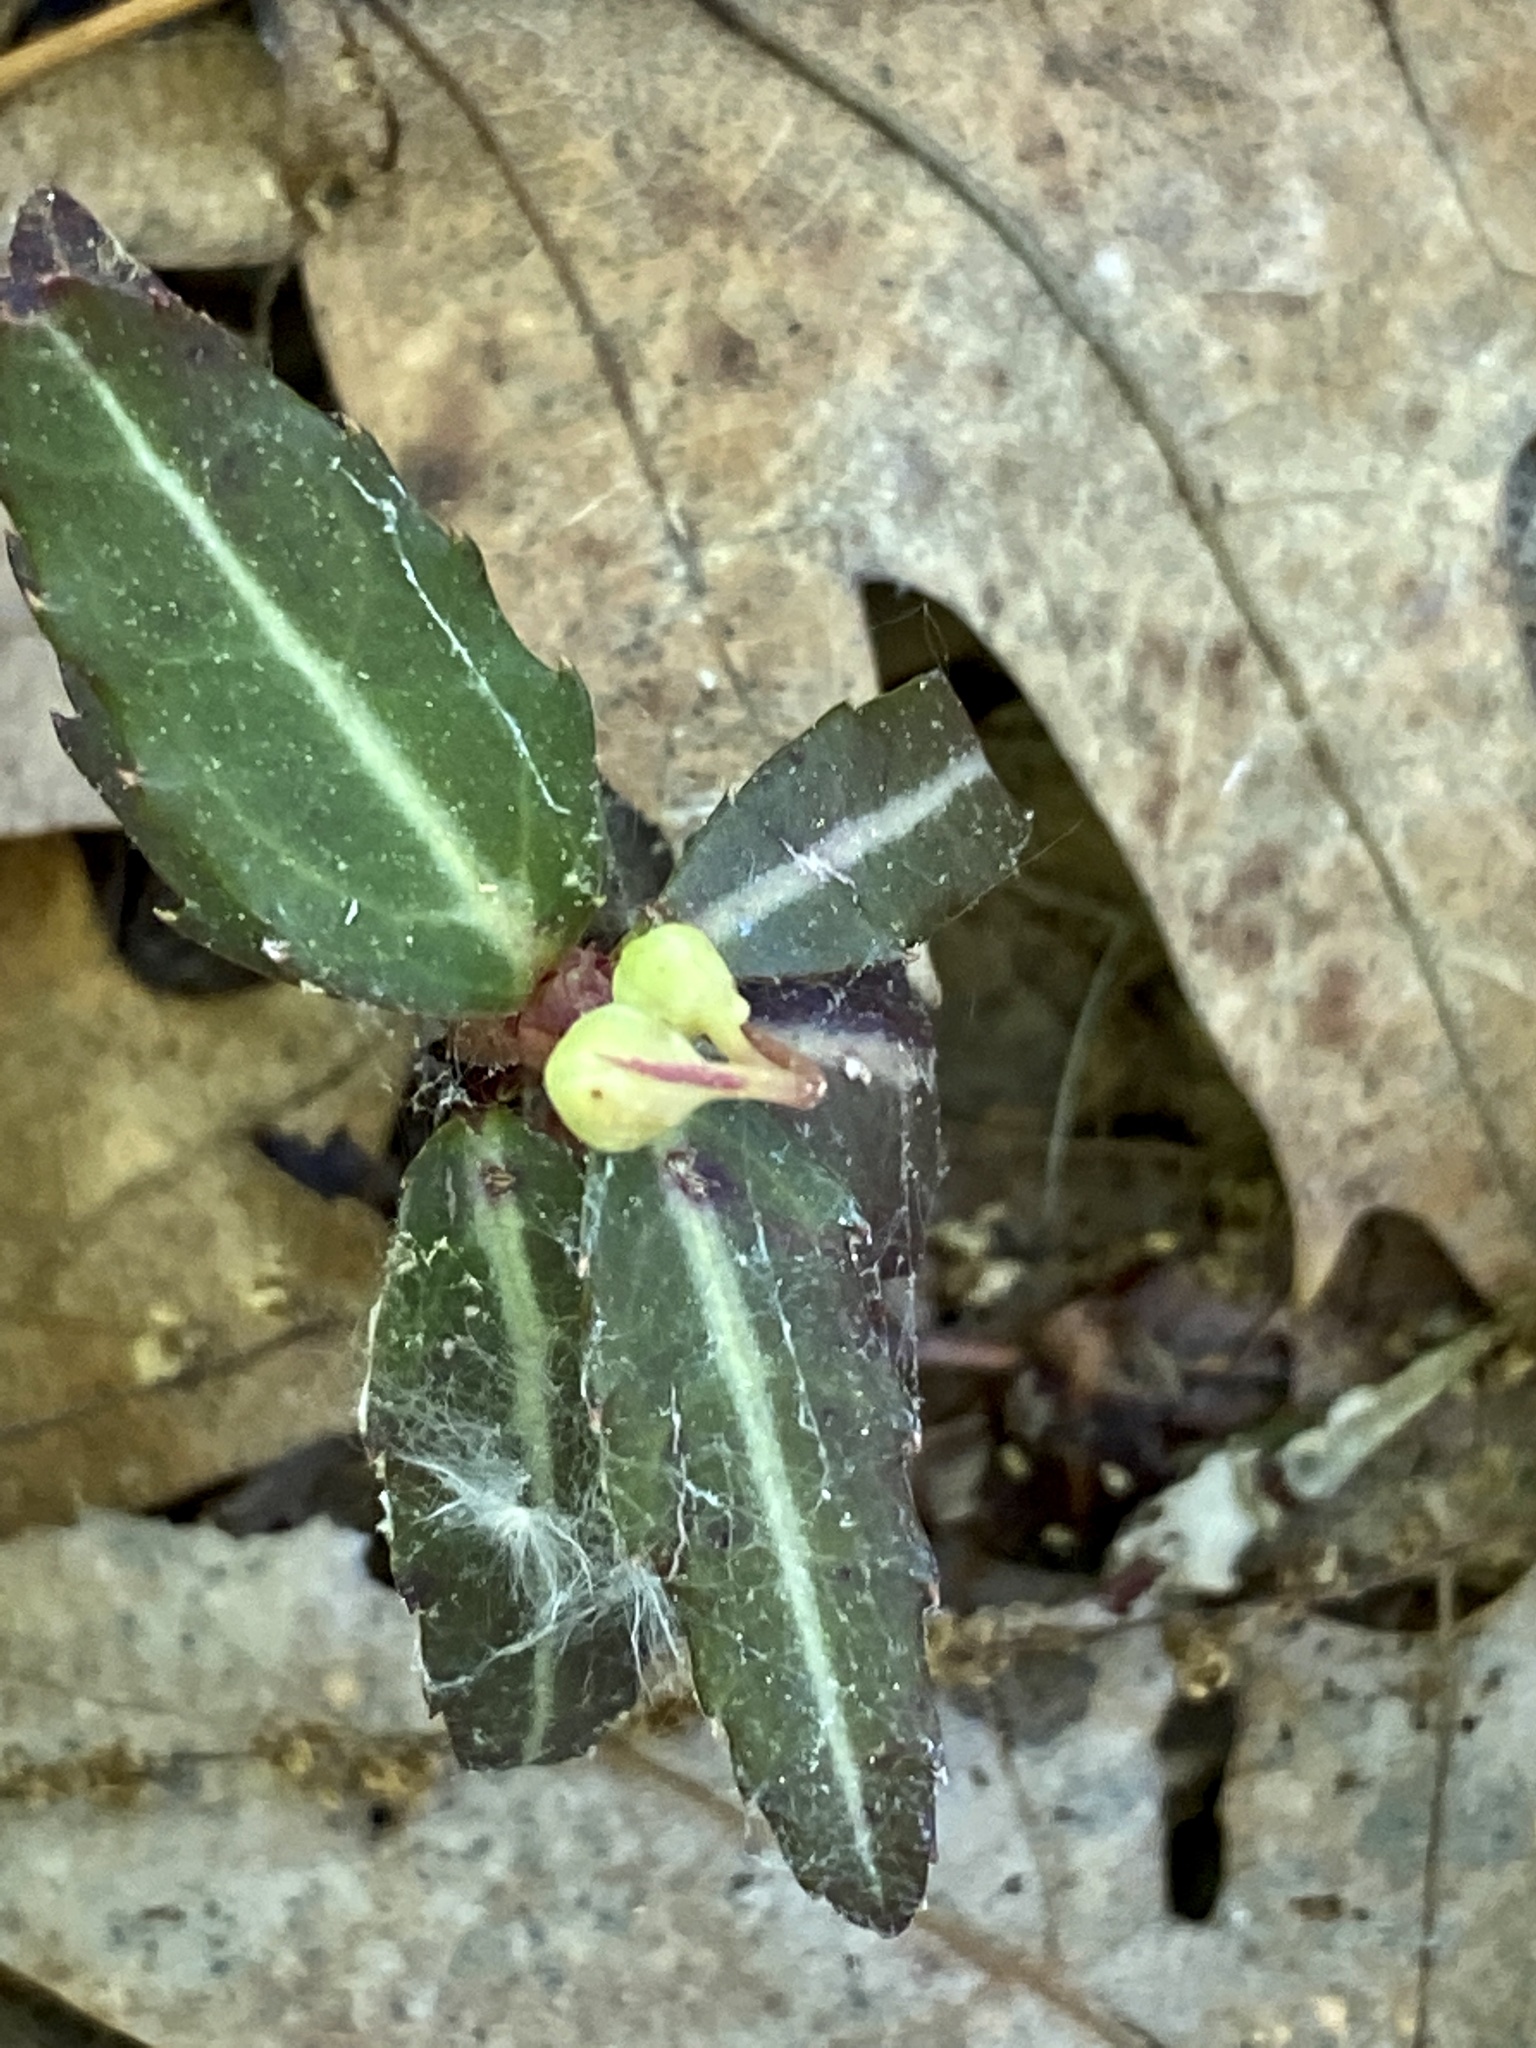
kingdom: Plantae
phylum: Tracheophyta
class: Magnoliopsida
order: Ericales
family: Ericaceae
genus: Chimaphila
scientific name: Chimaphila maculata
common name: Spotted pipsissewa
